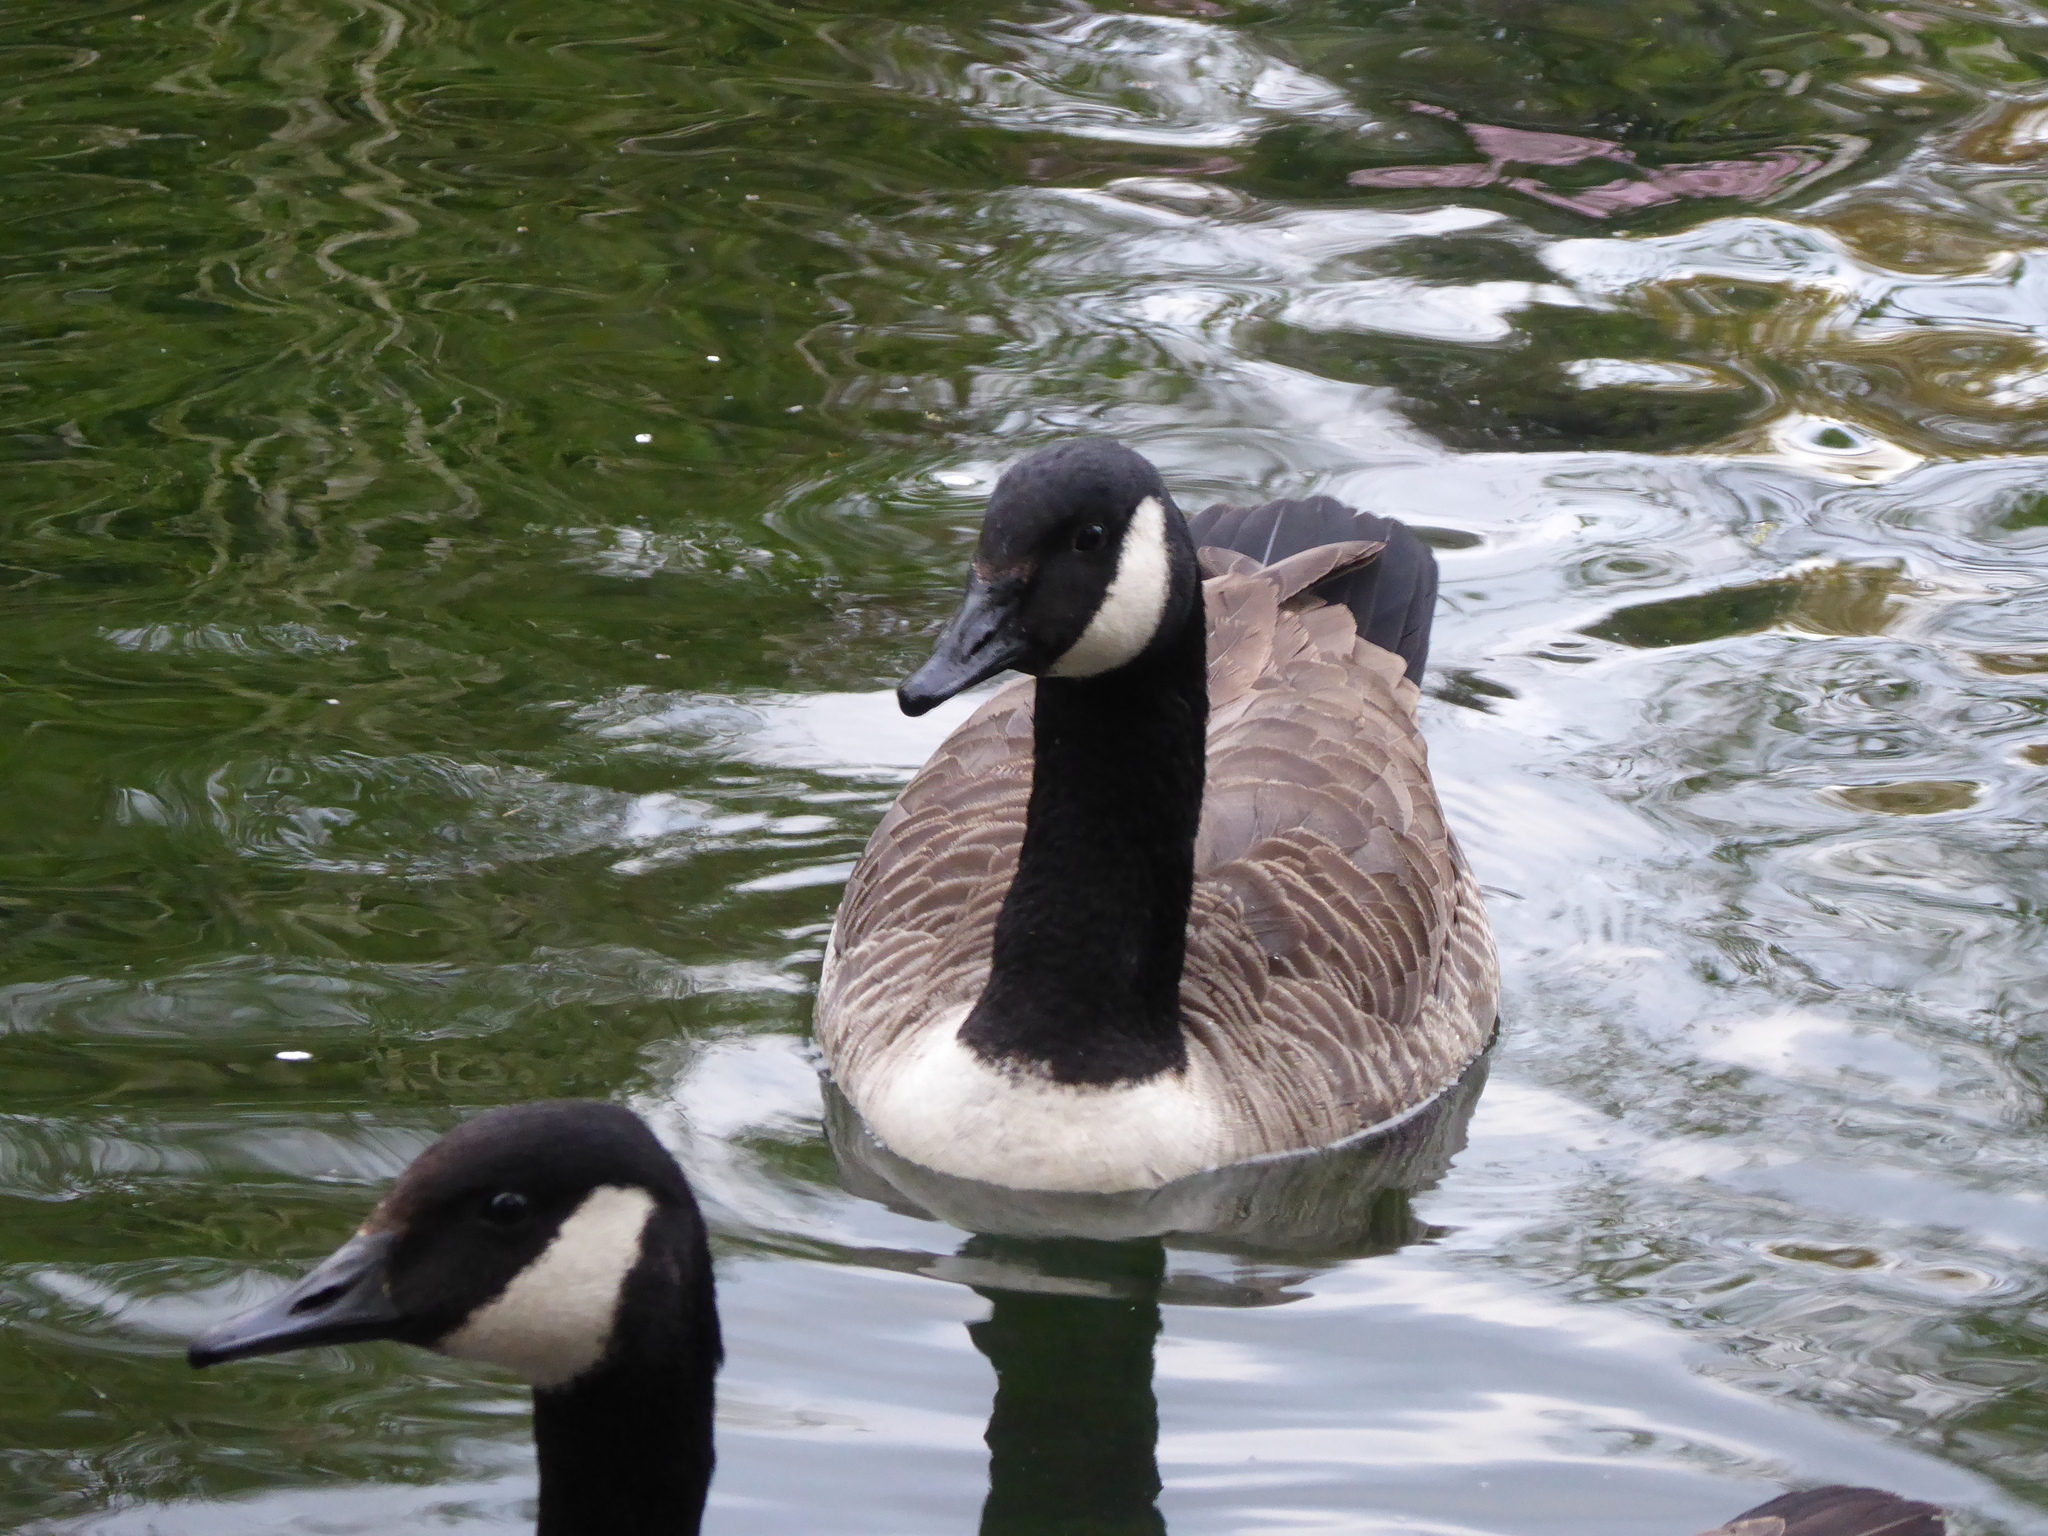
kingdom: Animalia
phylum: Chordata
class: Aves
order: Anseriformes
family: Anatidae
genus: Branta
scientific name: Branta canadensis
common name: Canada goose
